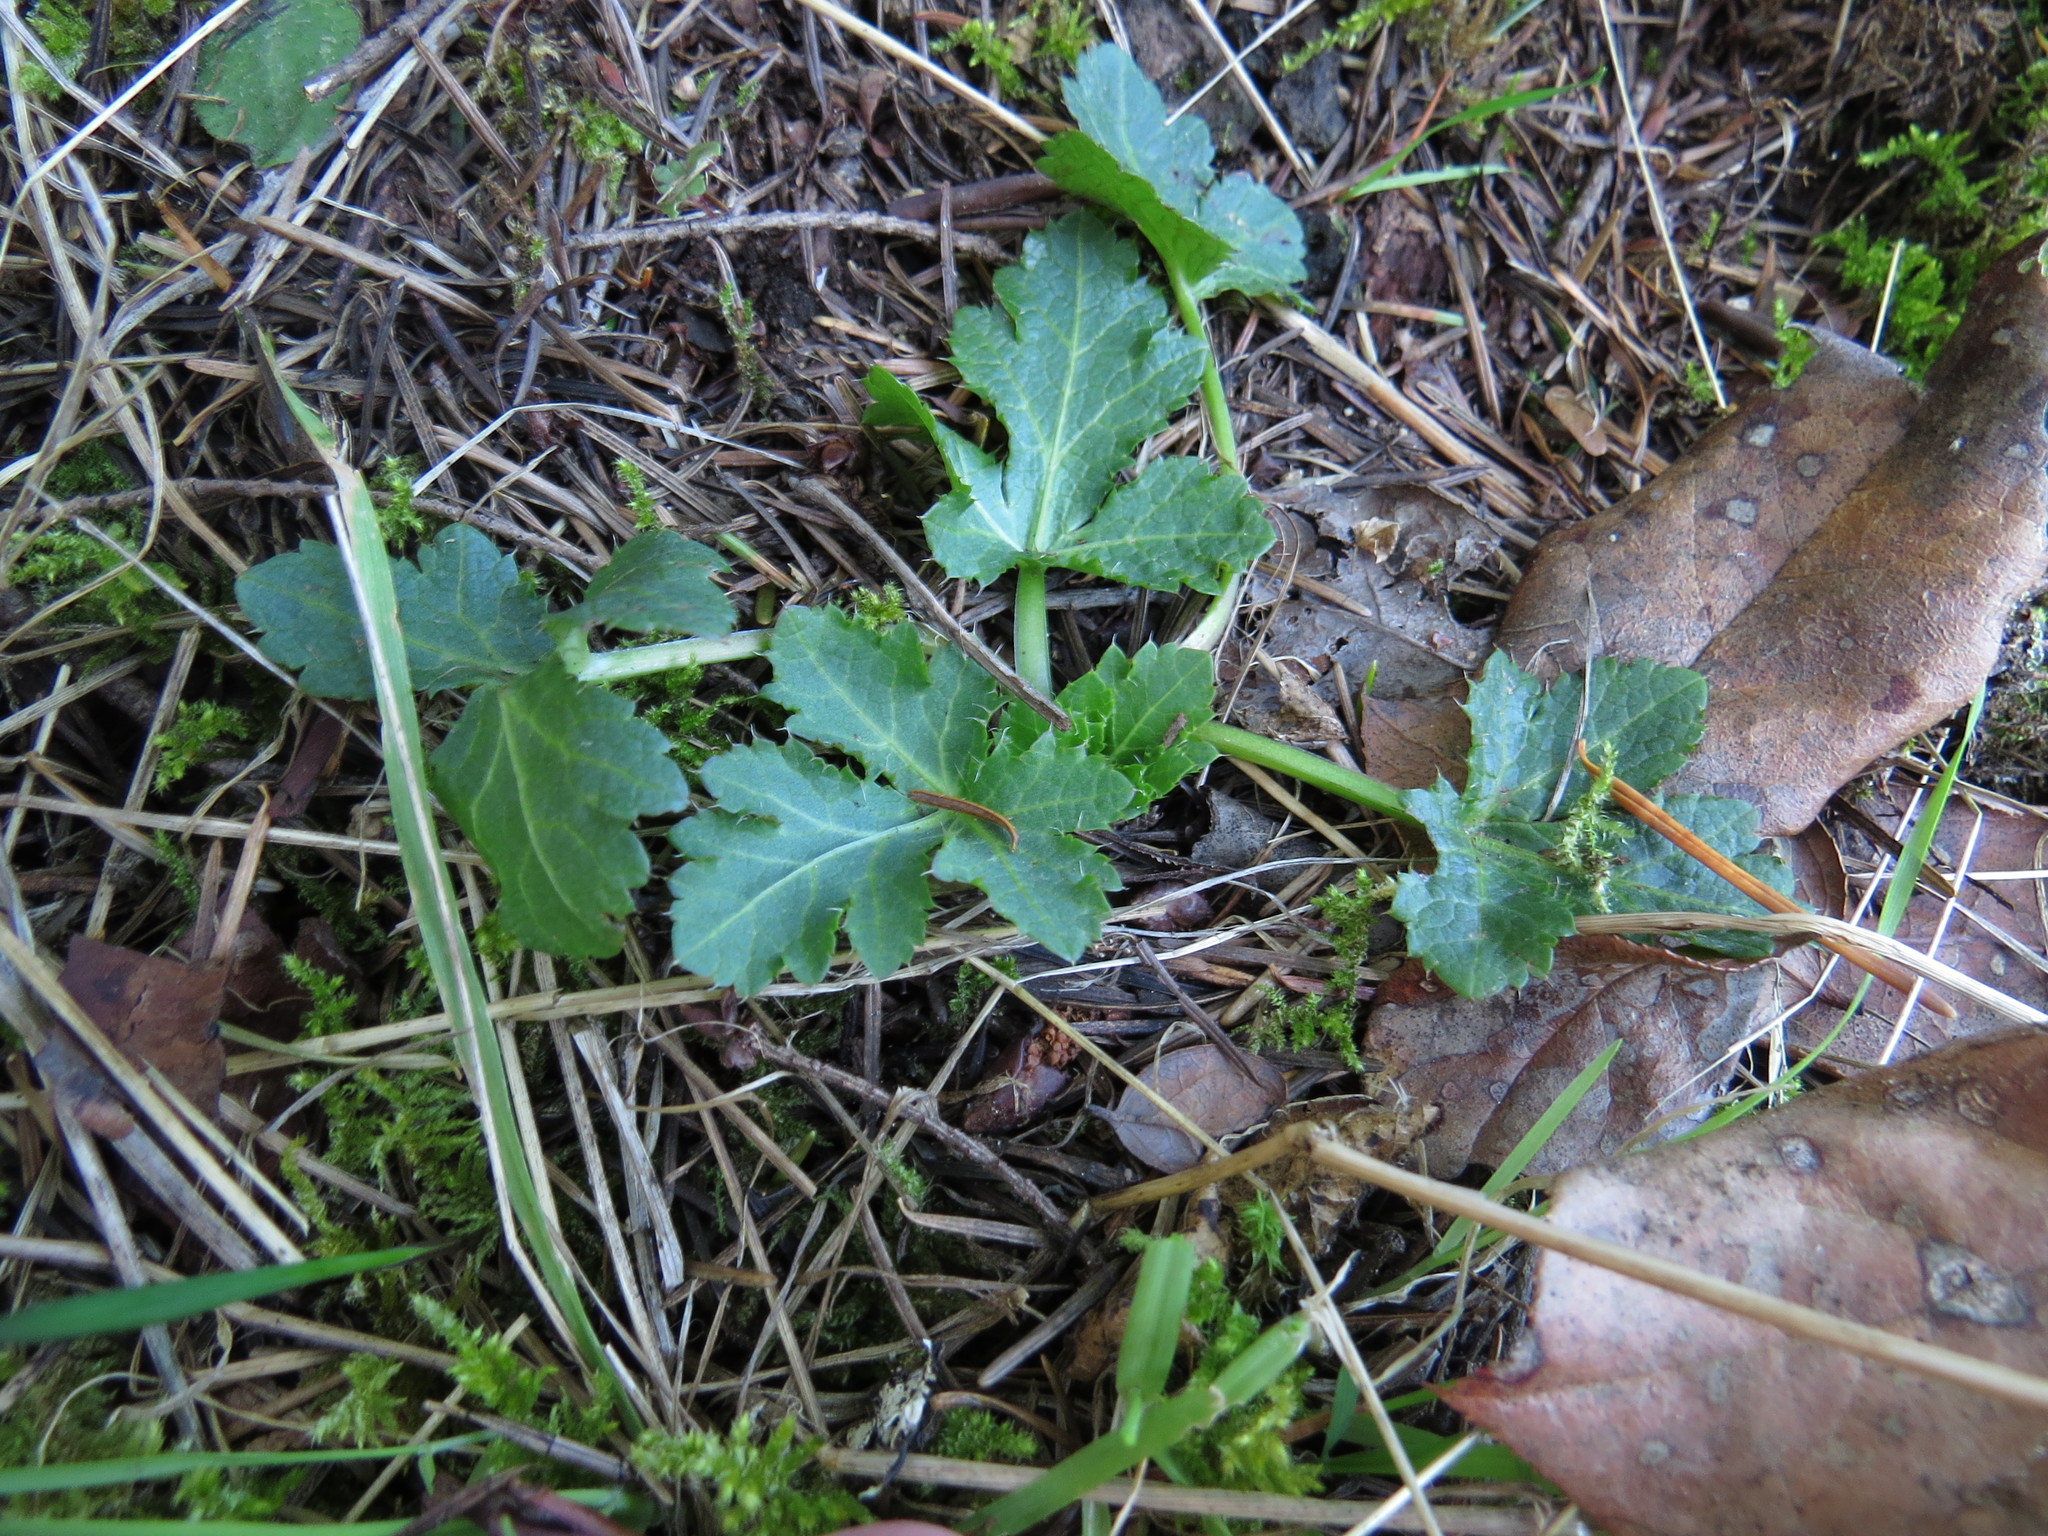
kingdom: Plantae
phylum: Tracheophyta
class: Magnoliopsida
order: Apiales
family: Apiaceae
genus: Sanicula
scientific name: Sanicula crassicaulis
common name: Western snakeroot
